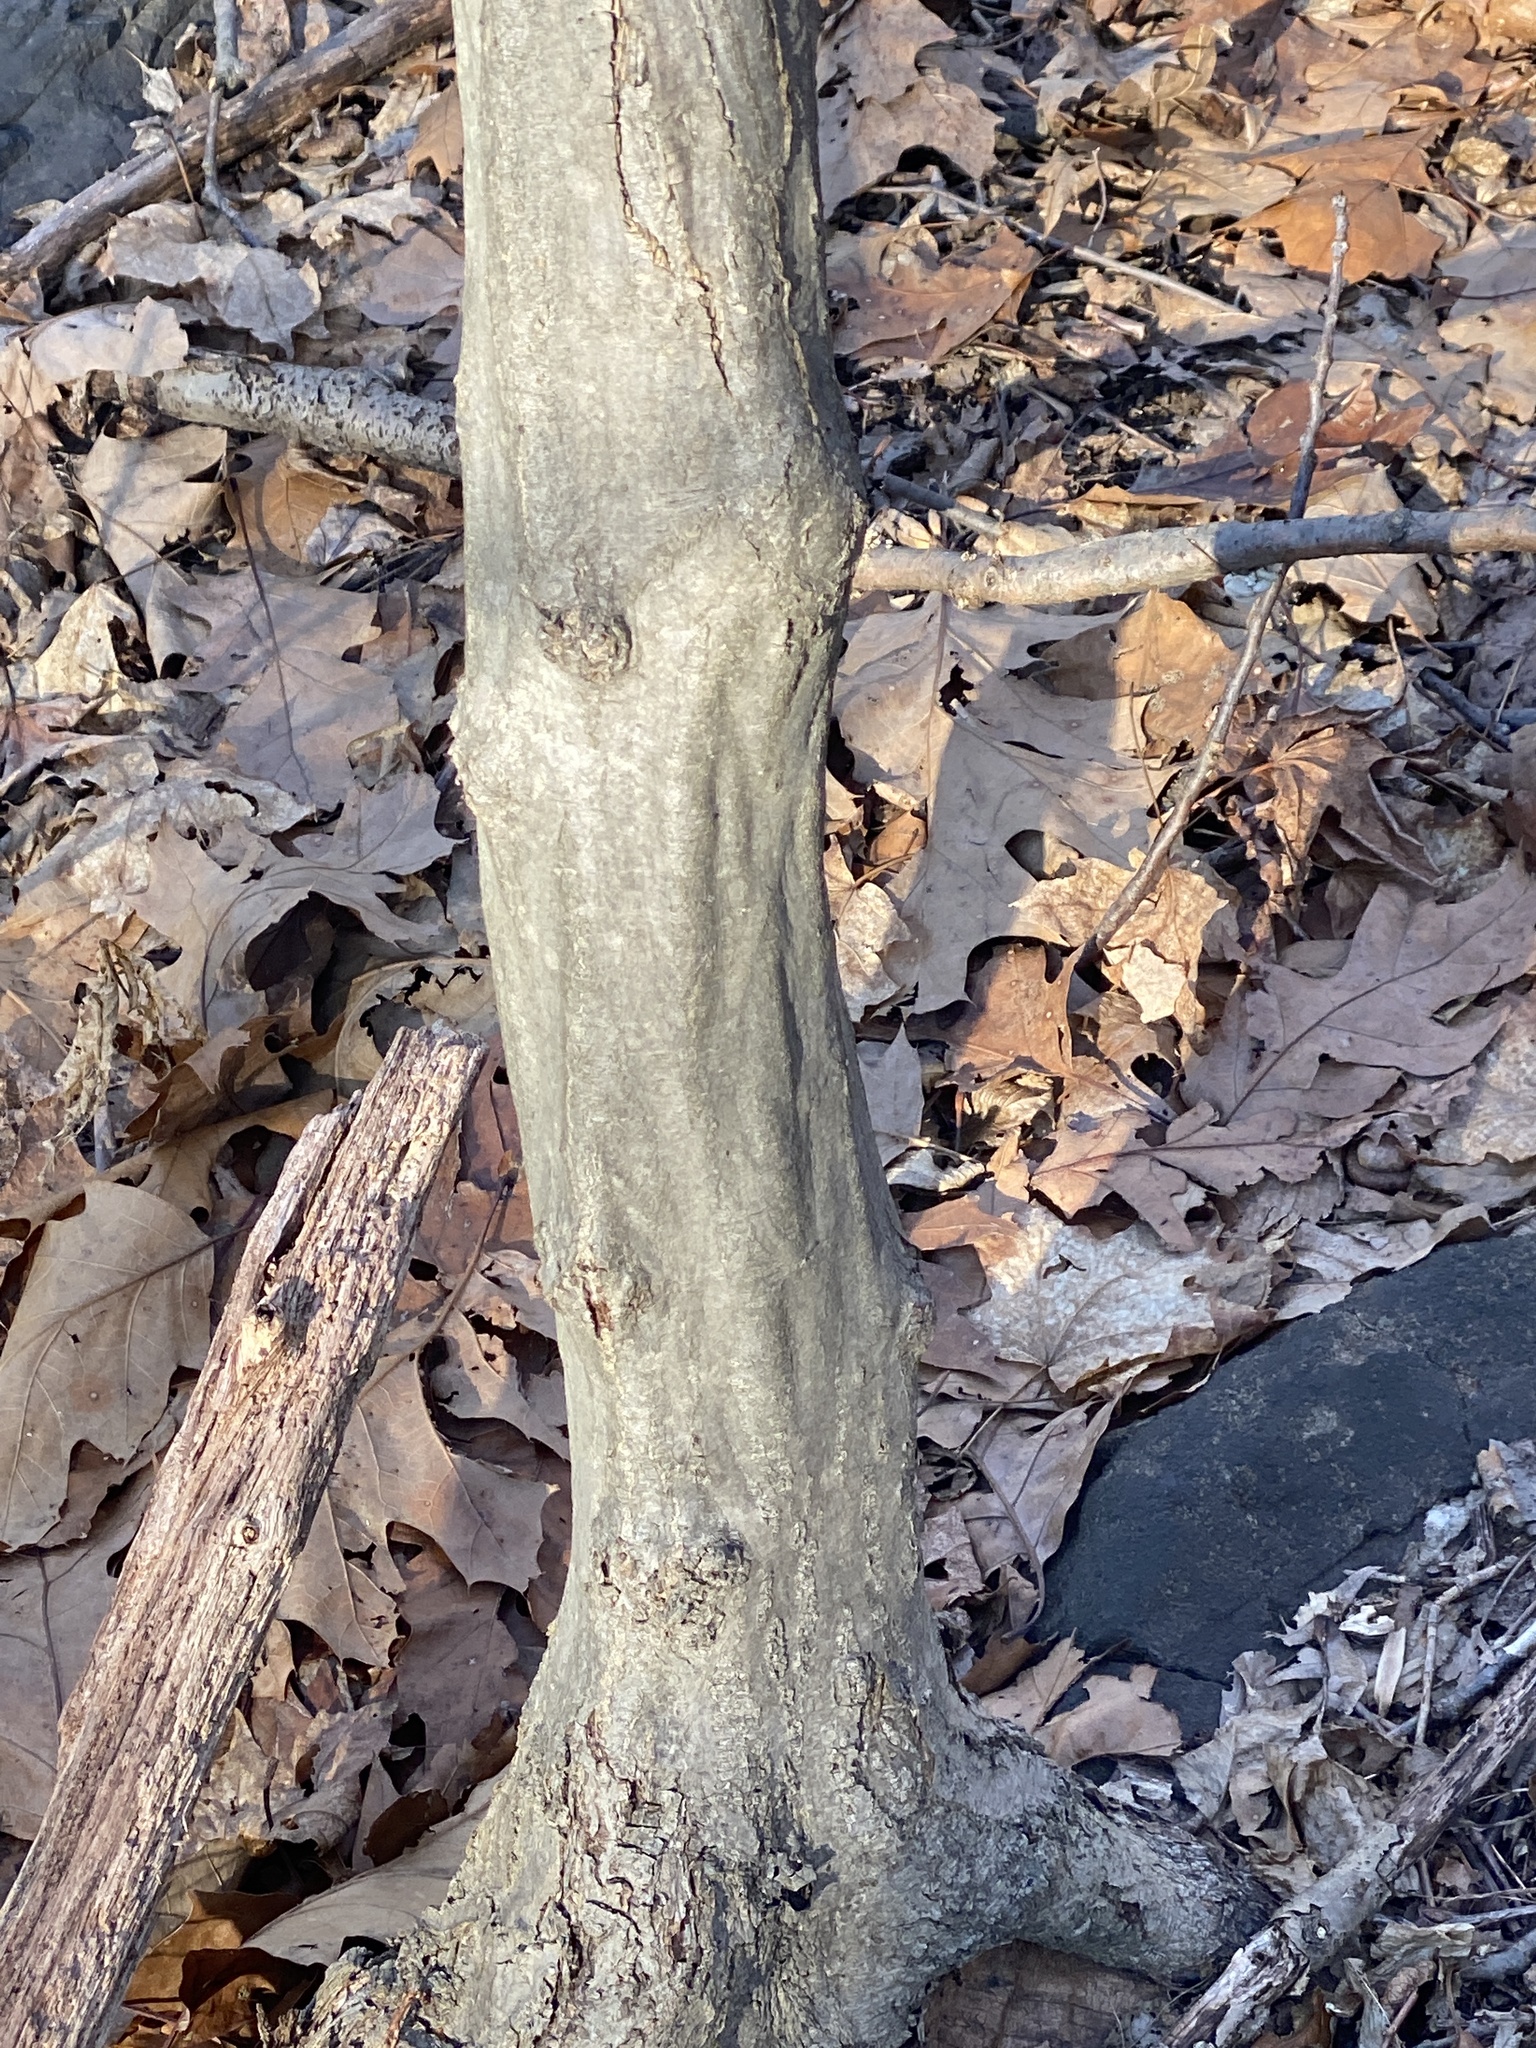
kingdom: Plantae
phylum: Tracheophyta
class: Magnoliopsida
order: Fagales
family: Betulaceae
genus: Carpinus
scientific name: Carpinus caroliniana
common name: American hornbeam
